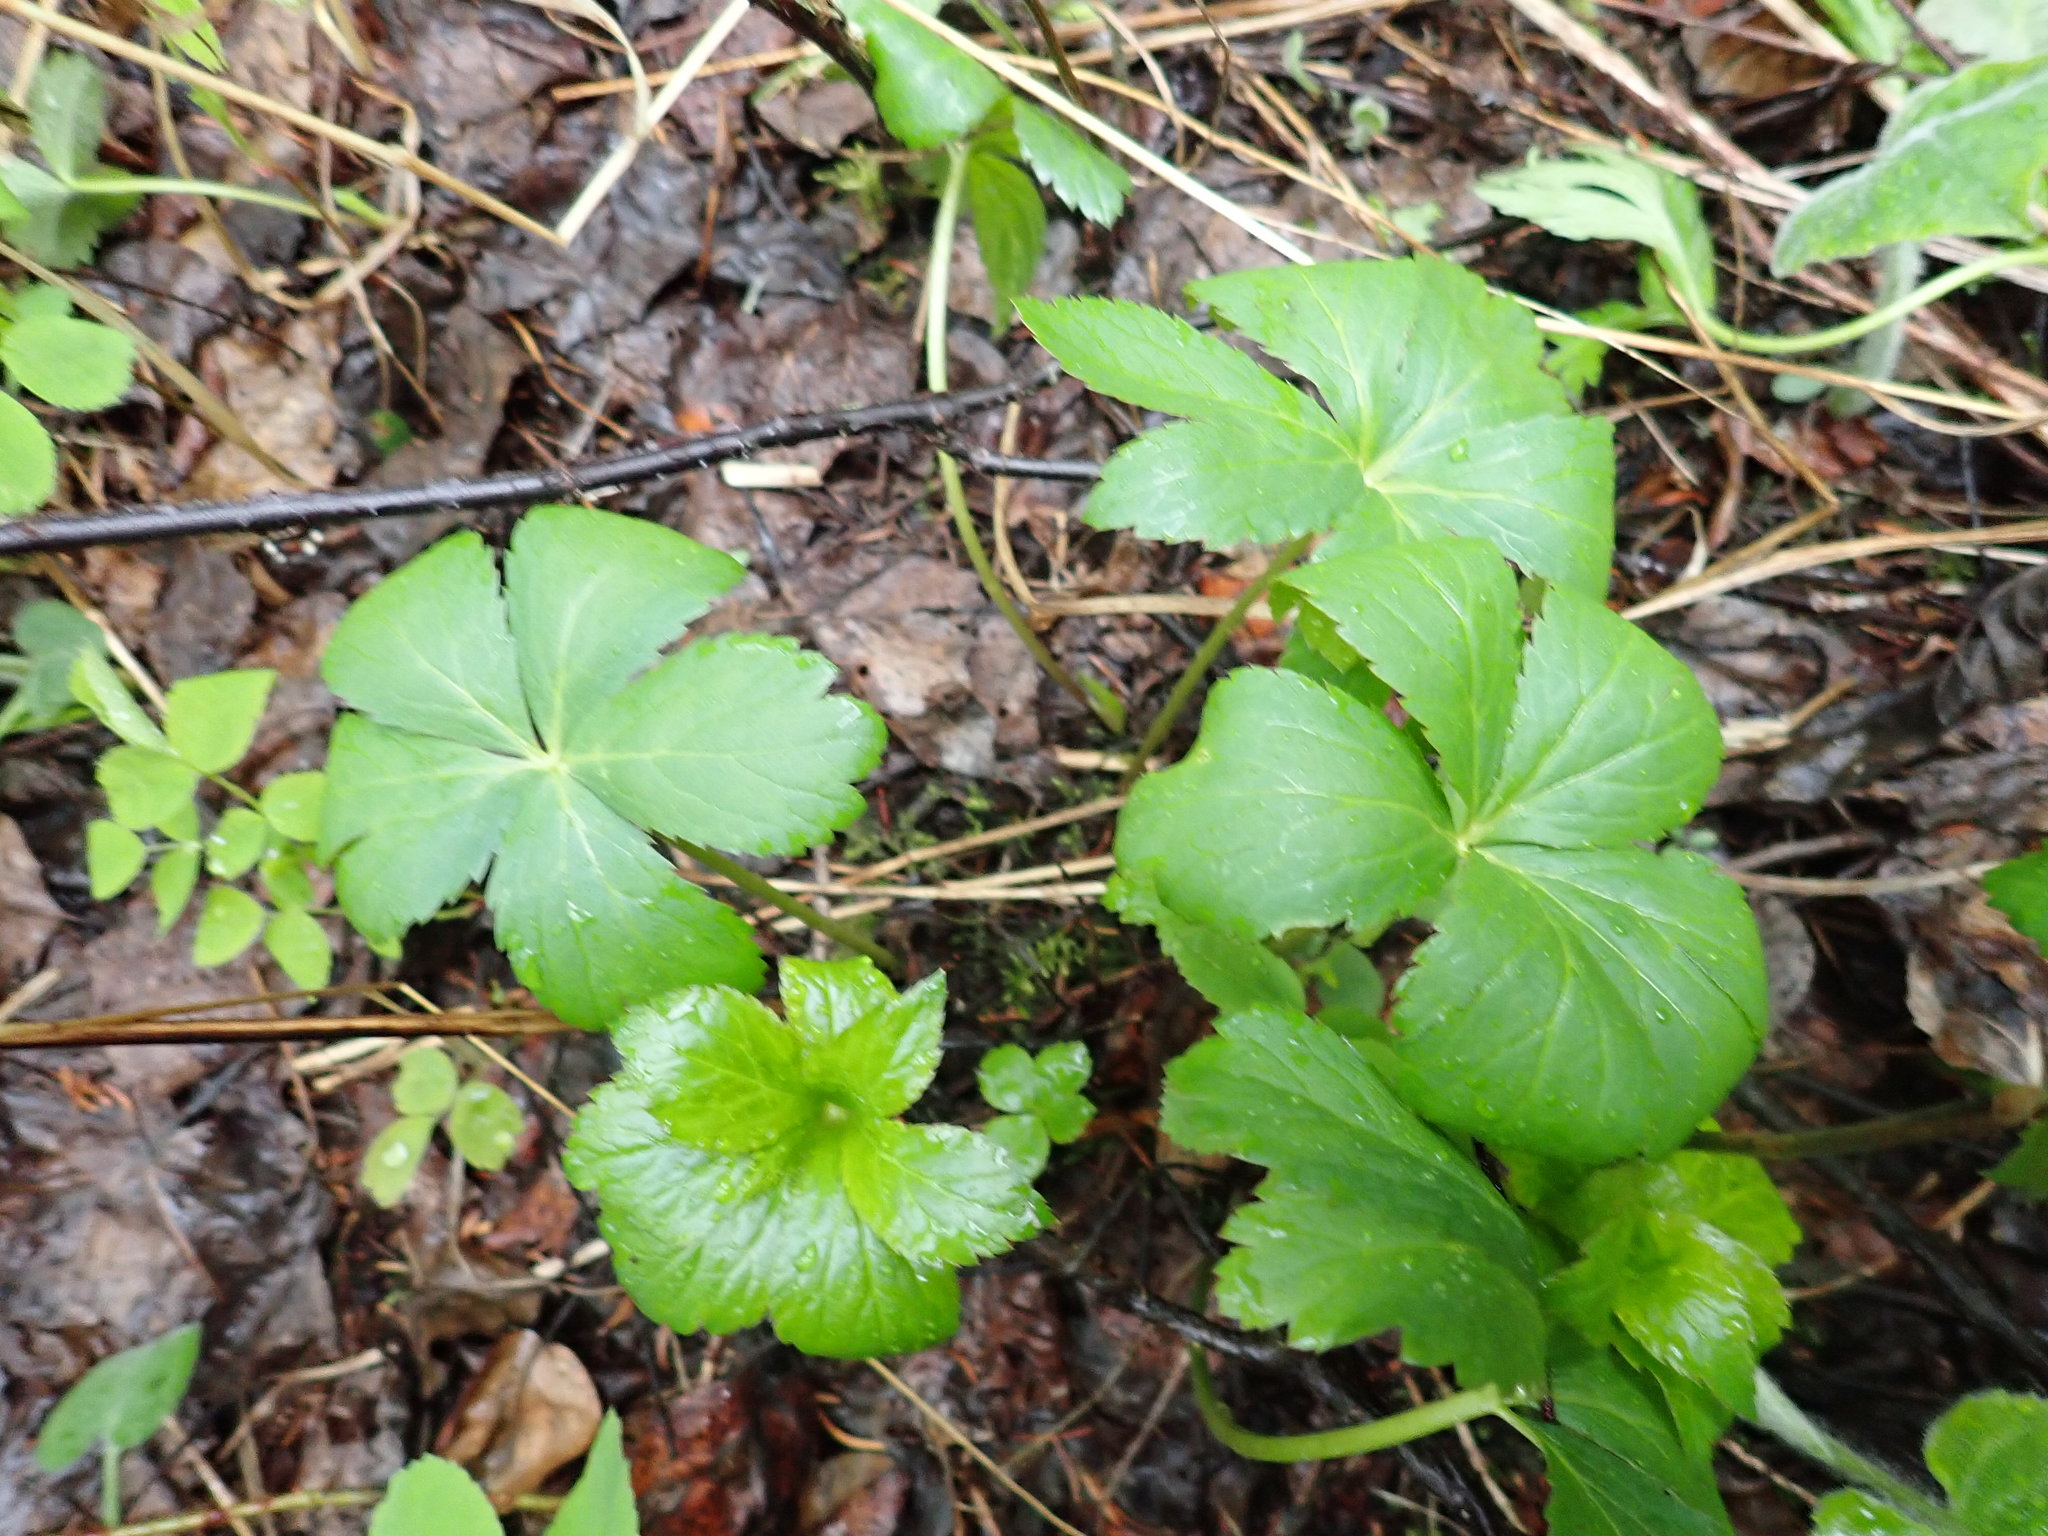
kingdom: Plantae
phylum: Tracheophyta
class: Magnoliopsida
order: Apiales
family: Apiaceae
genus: Sanicula
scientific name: Sanicula marilandica
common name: Black snakeroot
